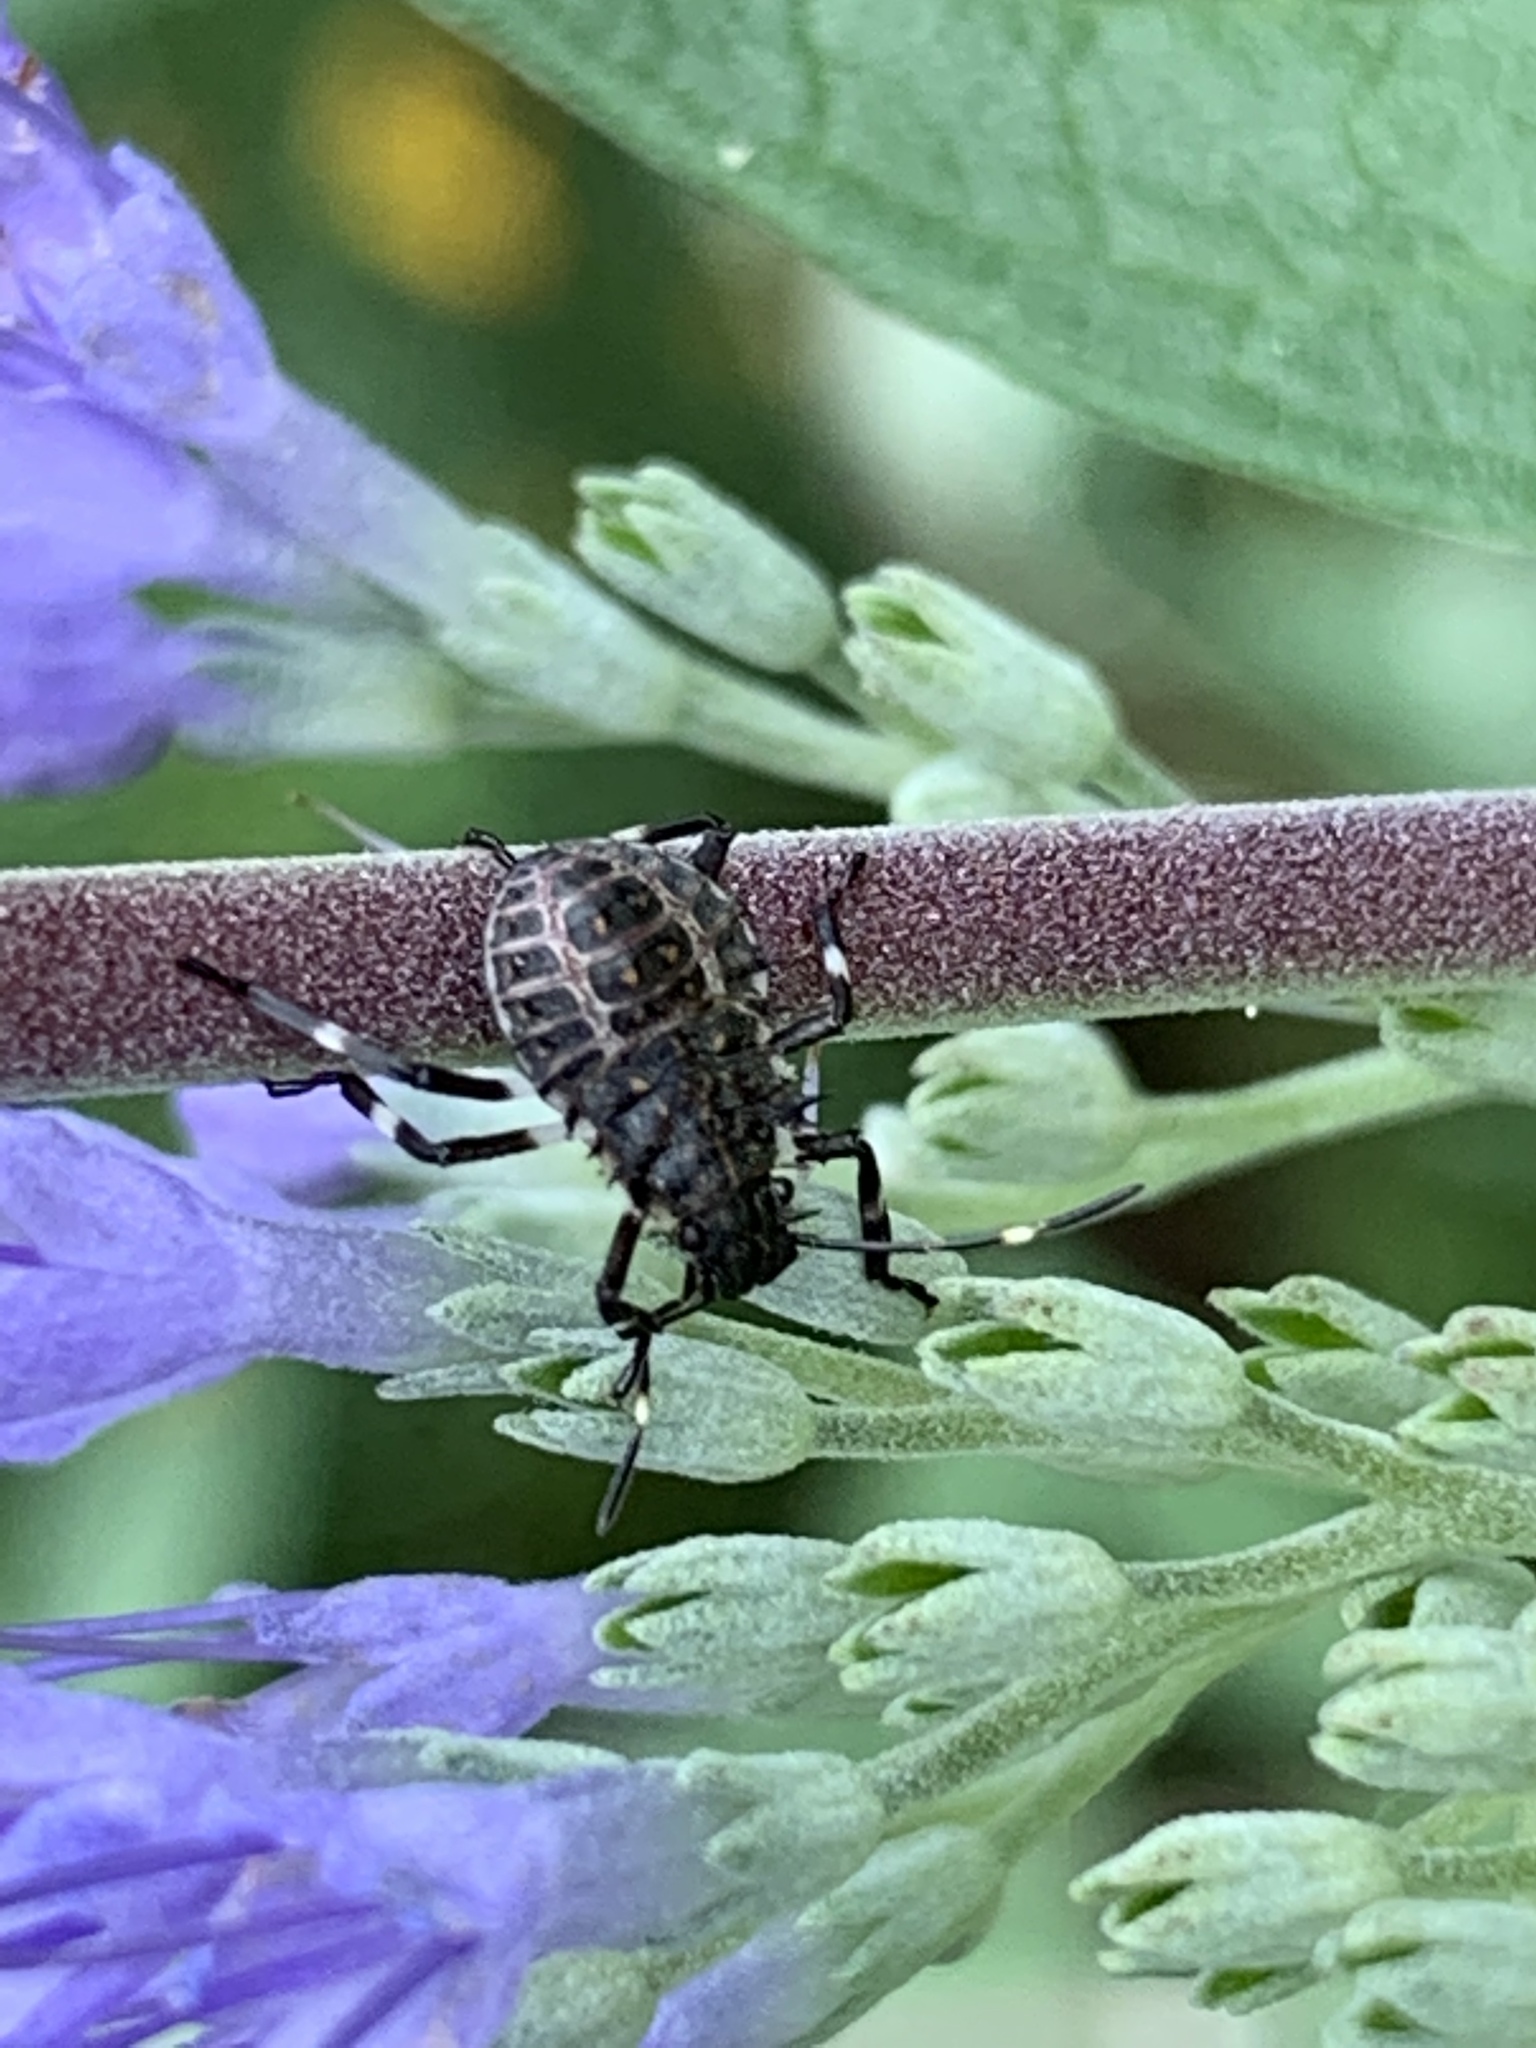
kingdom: Animalia
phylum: Arthropoda
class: Insecta
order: Hemiptera
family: Pentatomidae
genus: Halyomorpha
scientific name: Halyomorpha halys
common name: Brown marmorated stink bug
